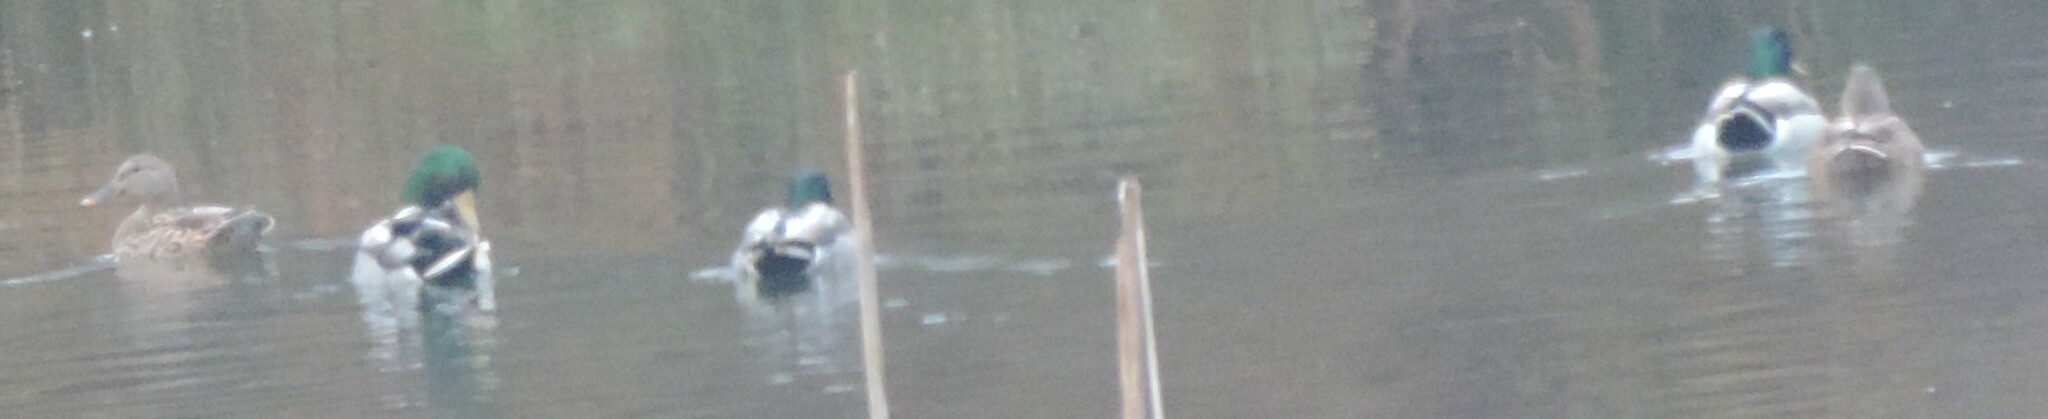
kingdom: Animalia
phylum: Chordata
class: Aves
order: Anseriformes
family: Anatidae
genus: Anas
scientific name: Anas platyrhynchos
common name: Mallard
